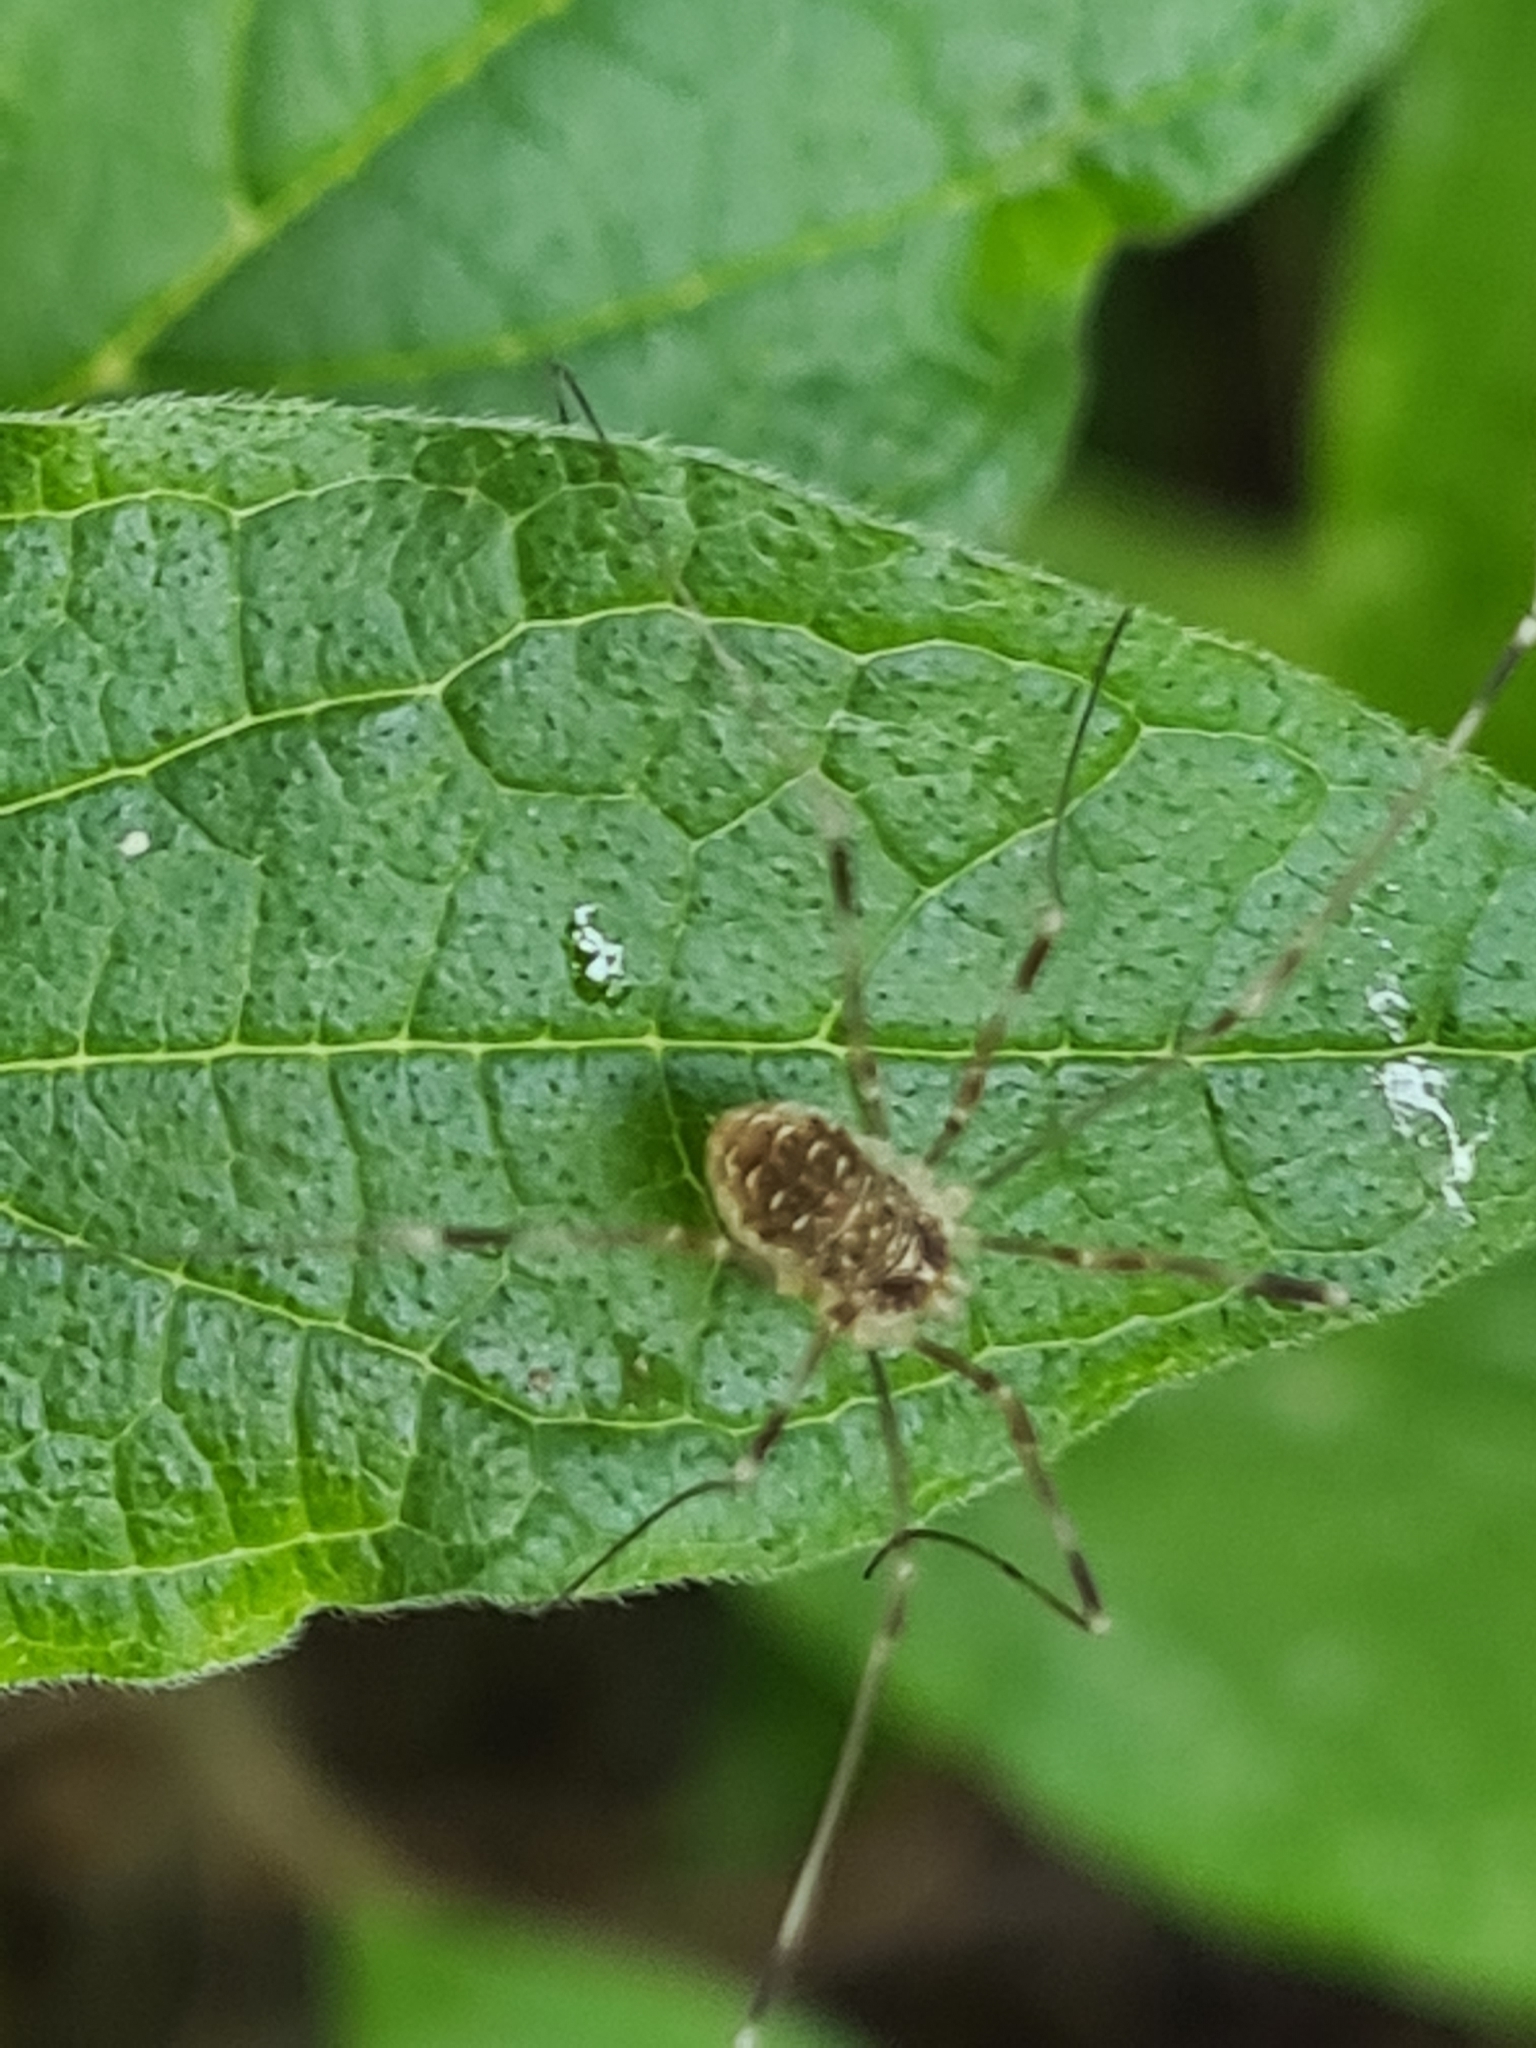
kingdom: Animalia
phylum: Arthropoda
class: Arachnida
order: Opiliones
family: Phalangiidae
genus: Opilio
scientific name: Opilio canestrinii
